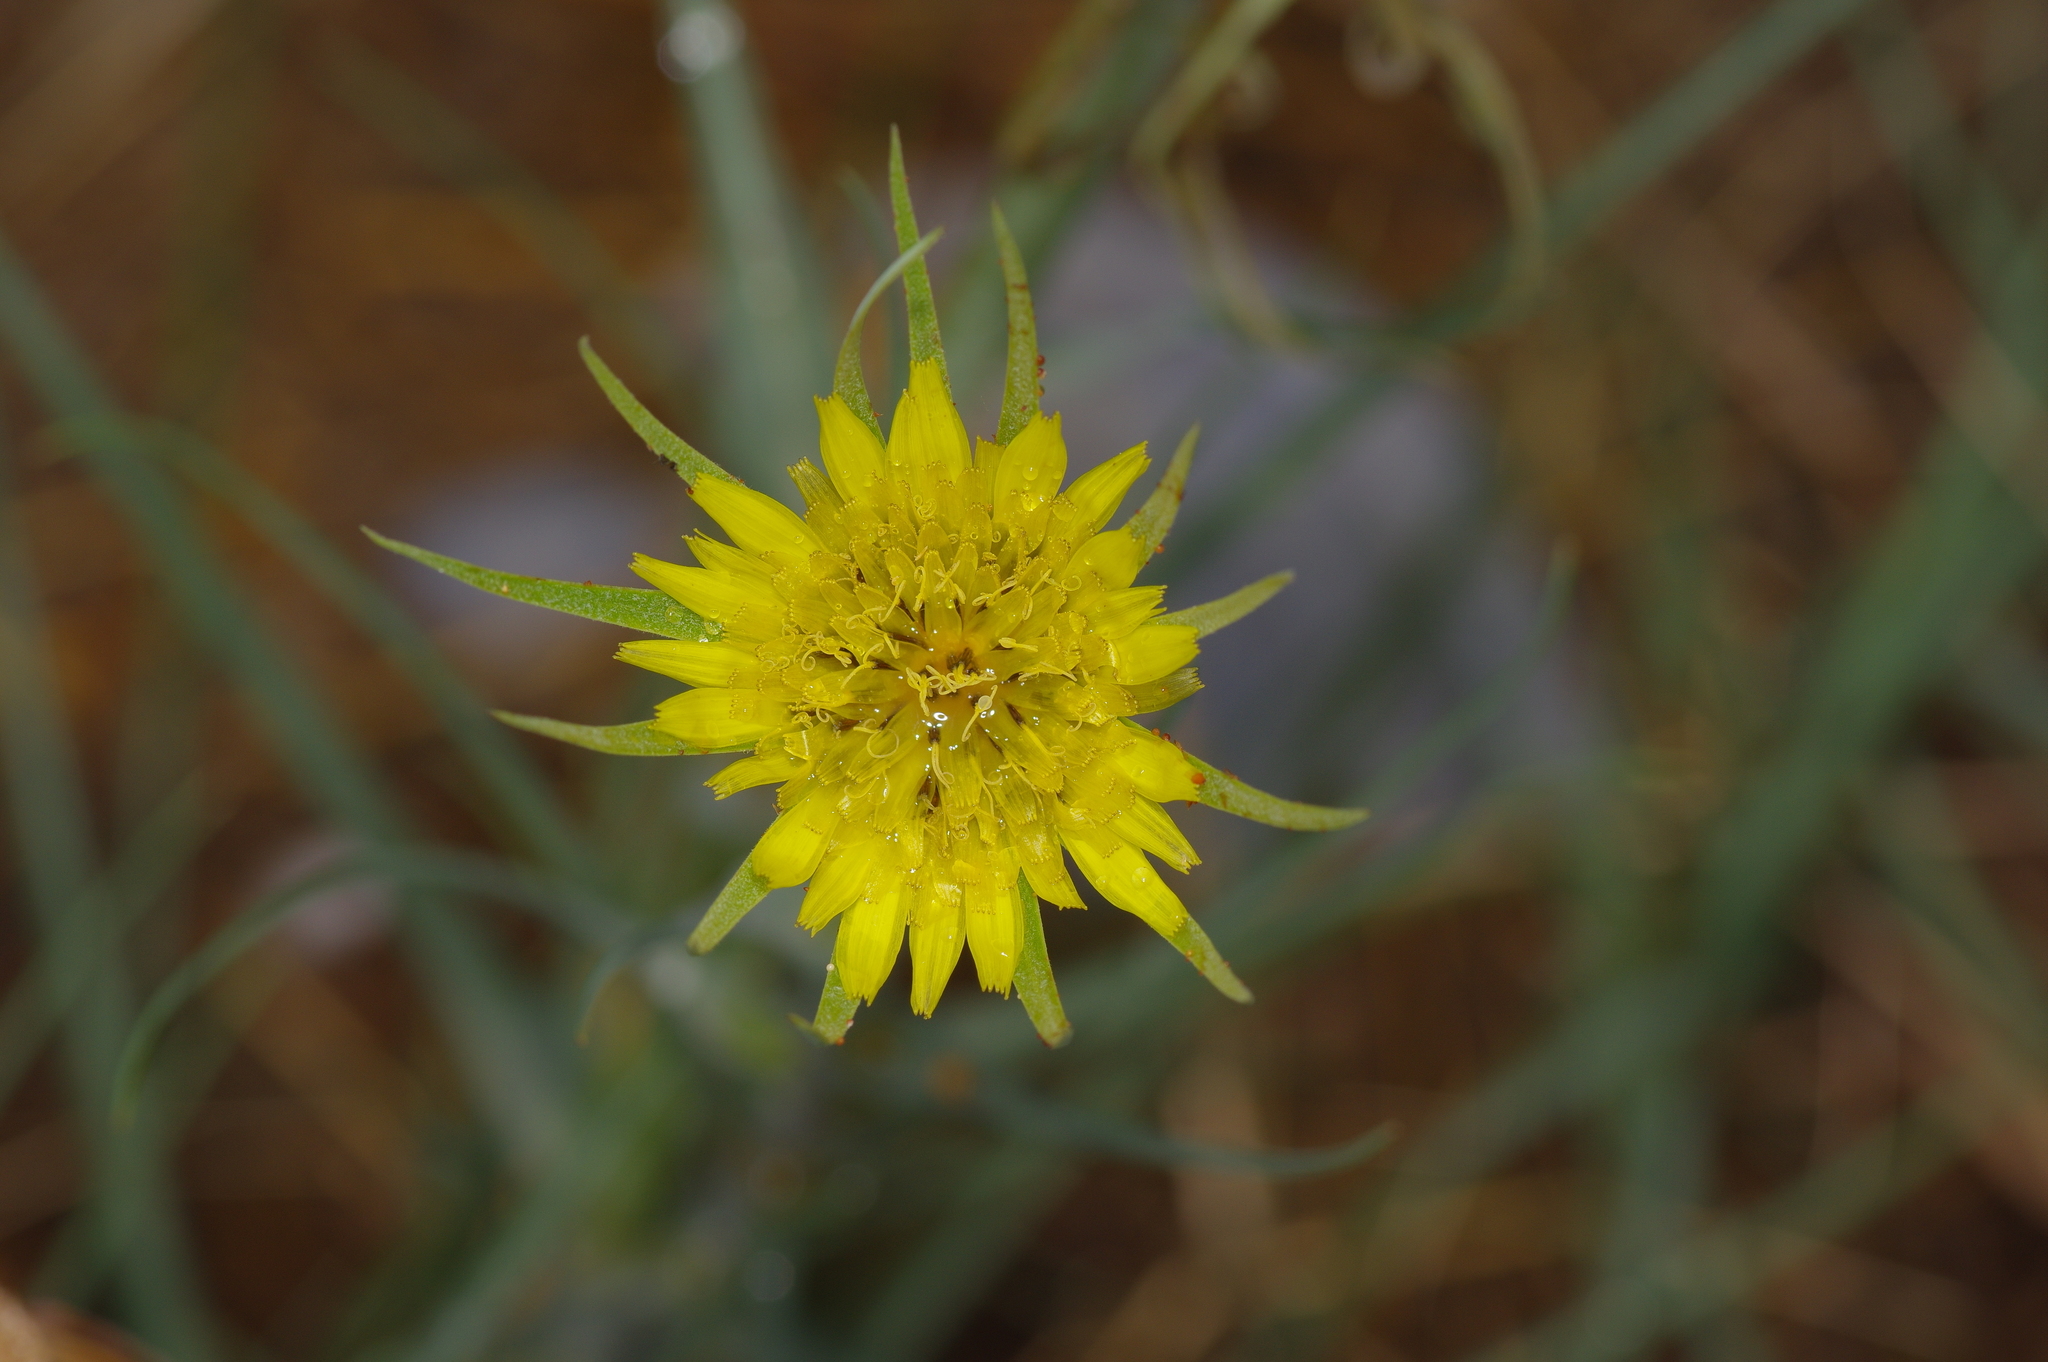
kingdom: Plantae
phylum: Tracheophyta
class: Magnoliopsida
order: Asterales
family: Asteraceae
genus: Tragopogon
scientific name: Tragopogon dubius
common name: Yellow salsify
